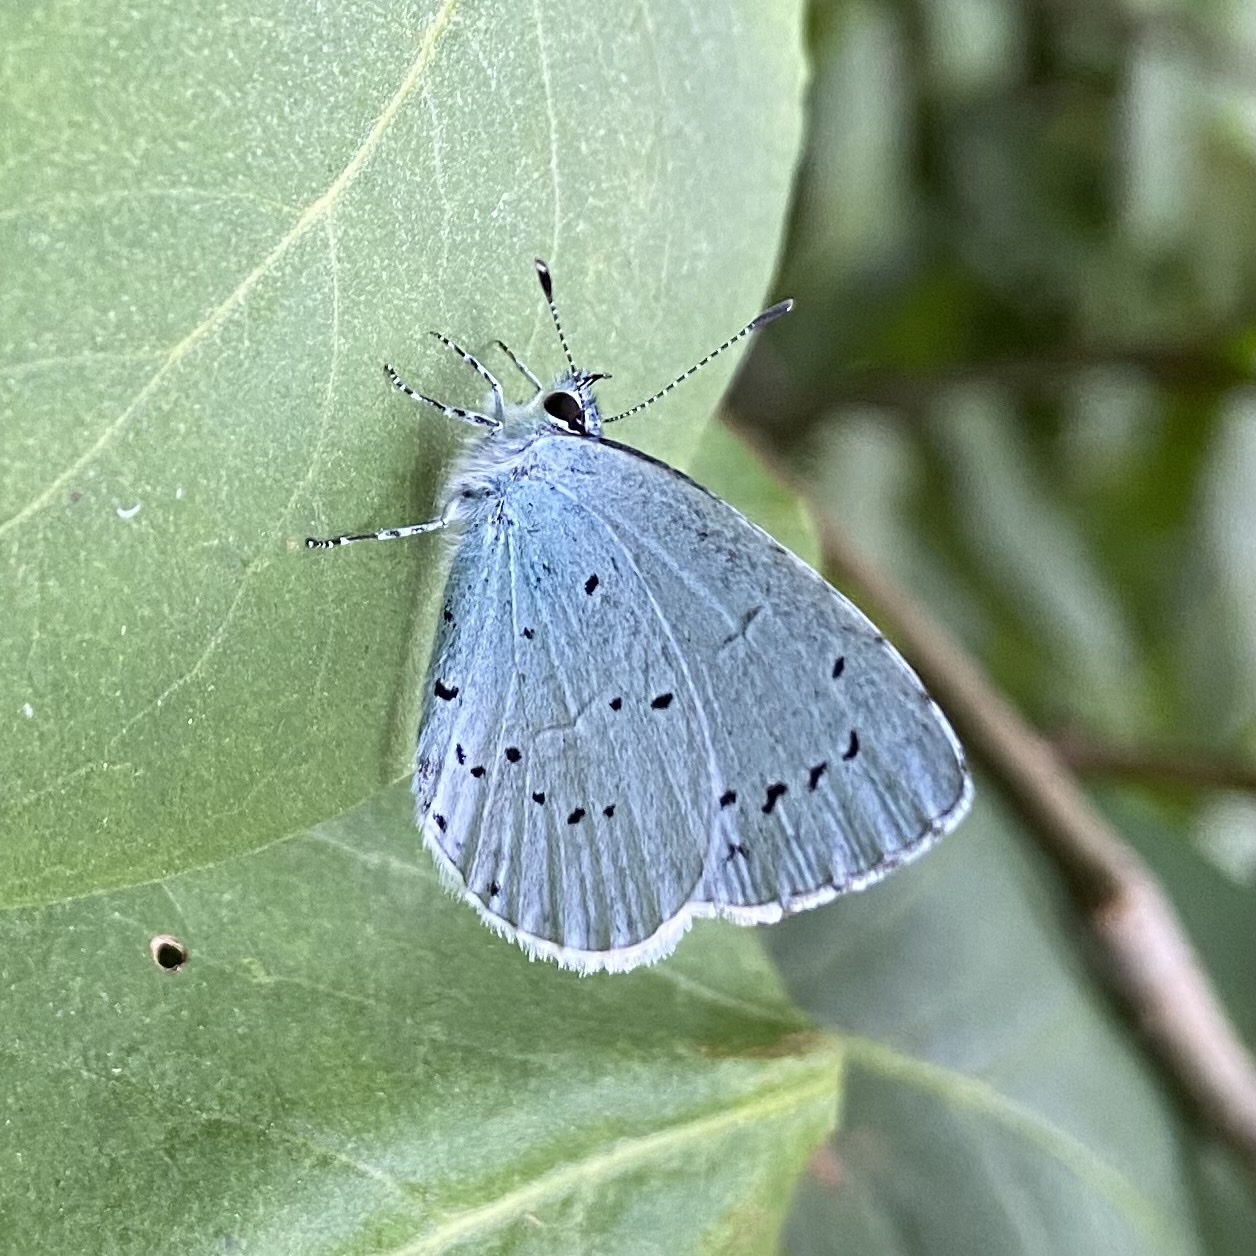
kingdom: Animalia
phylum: Arthropoda
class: Insecta
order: Lepidoptera
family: Lycaenidae
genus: Celastrina
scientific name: Celastrina argiolus
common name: Holly blue
